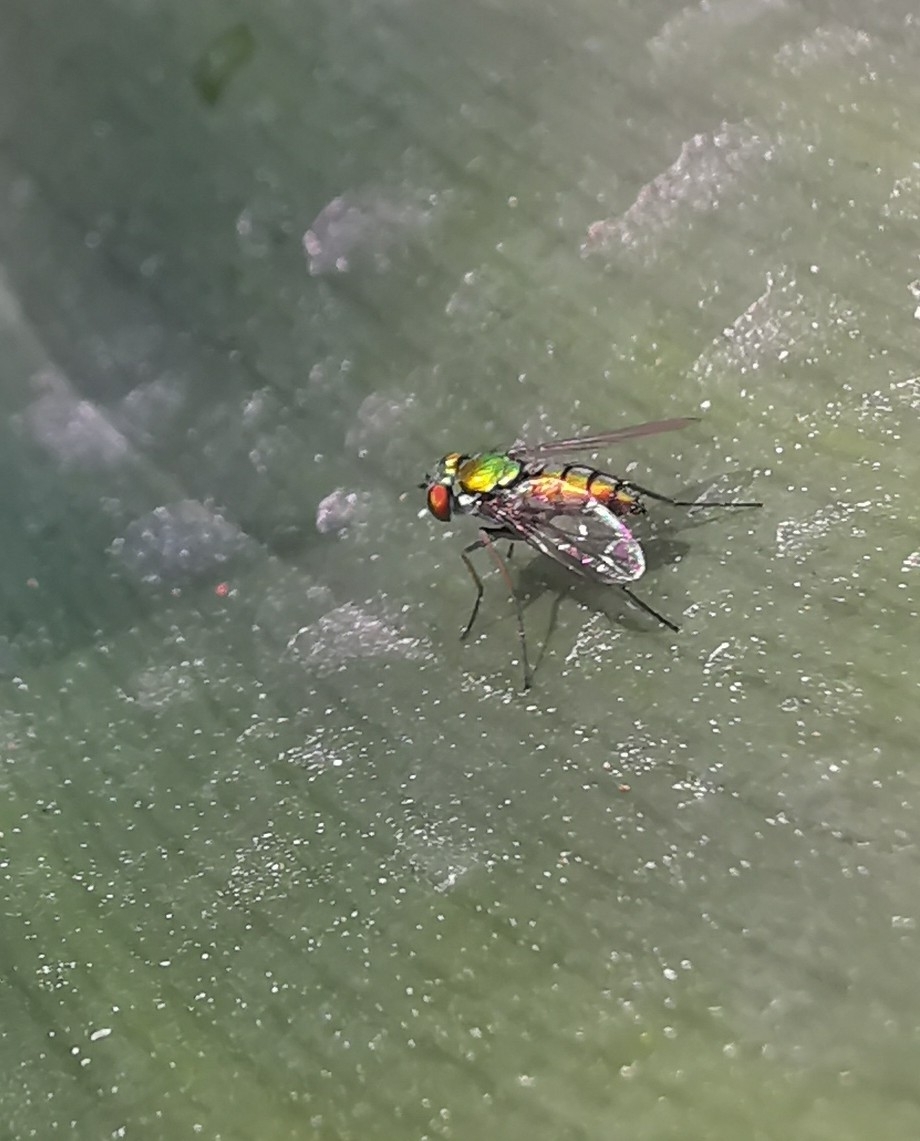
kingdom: Animalia
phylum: Arthropoda
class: Insecta
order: Diptera
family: Dolichopodidae
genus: Condylostylus
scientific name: Condylostylus longicornis
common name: Long-legged fly
